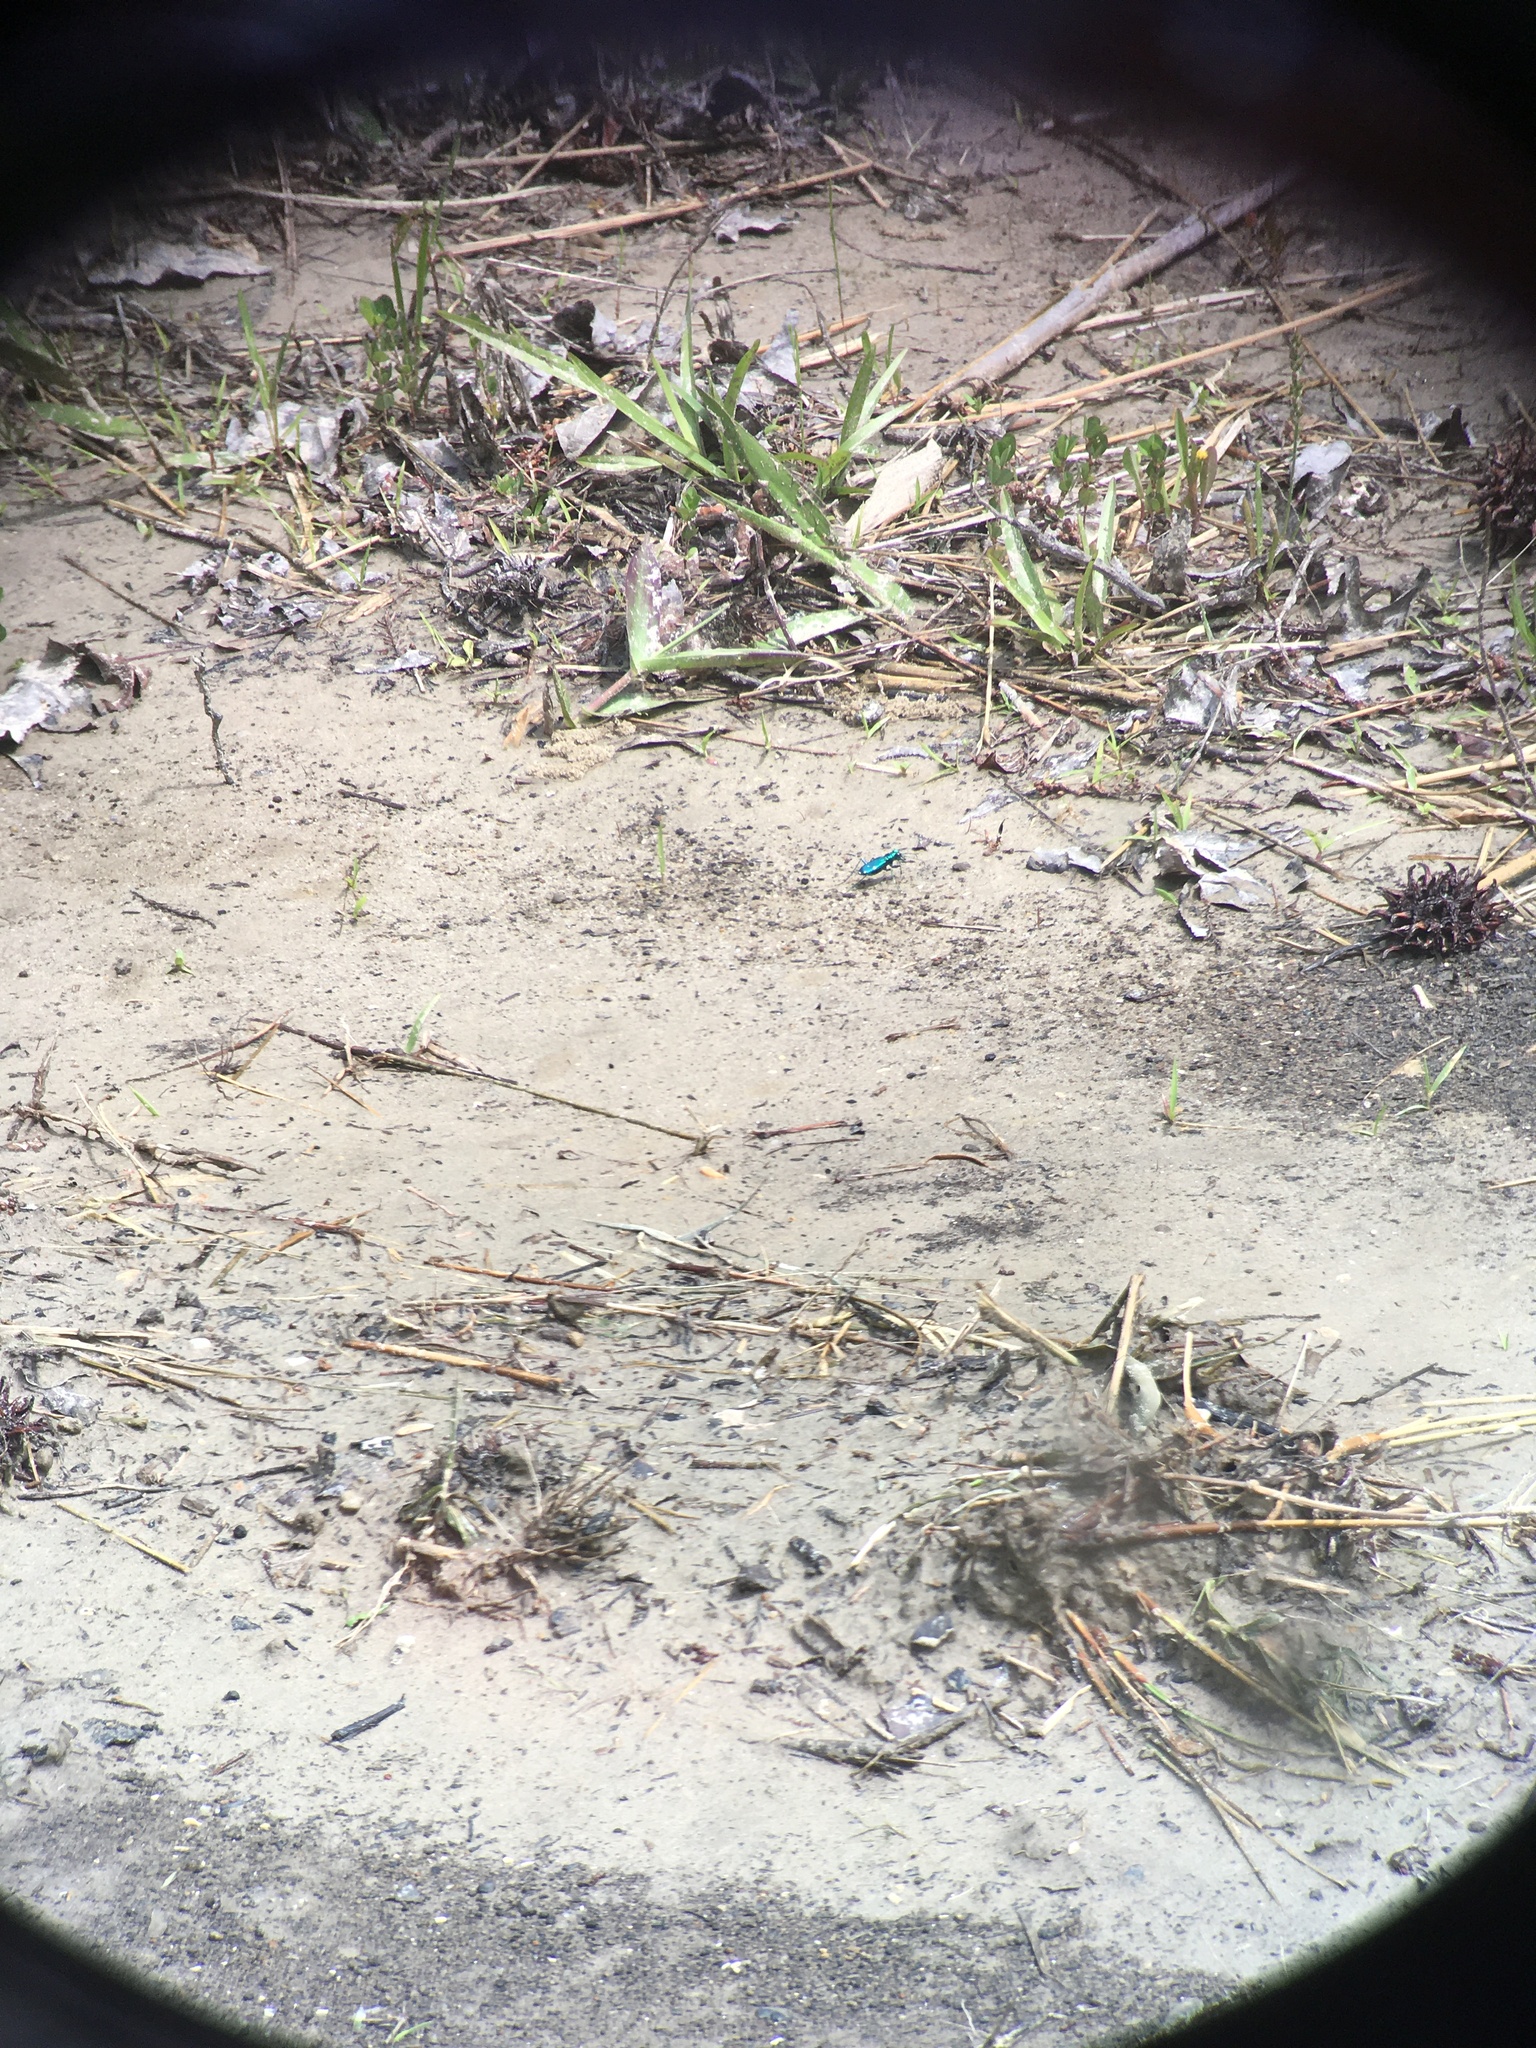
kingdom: Animalia
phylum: Arthropoda
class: Insecta
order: Coleoptera
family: Carabidae
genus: Cicindela
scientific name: Cicindela sexguttata
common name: Six-spotted tiger beetle
